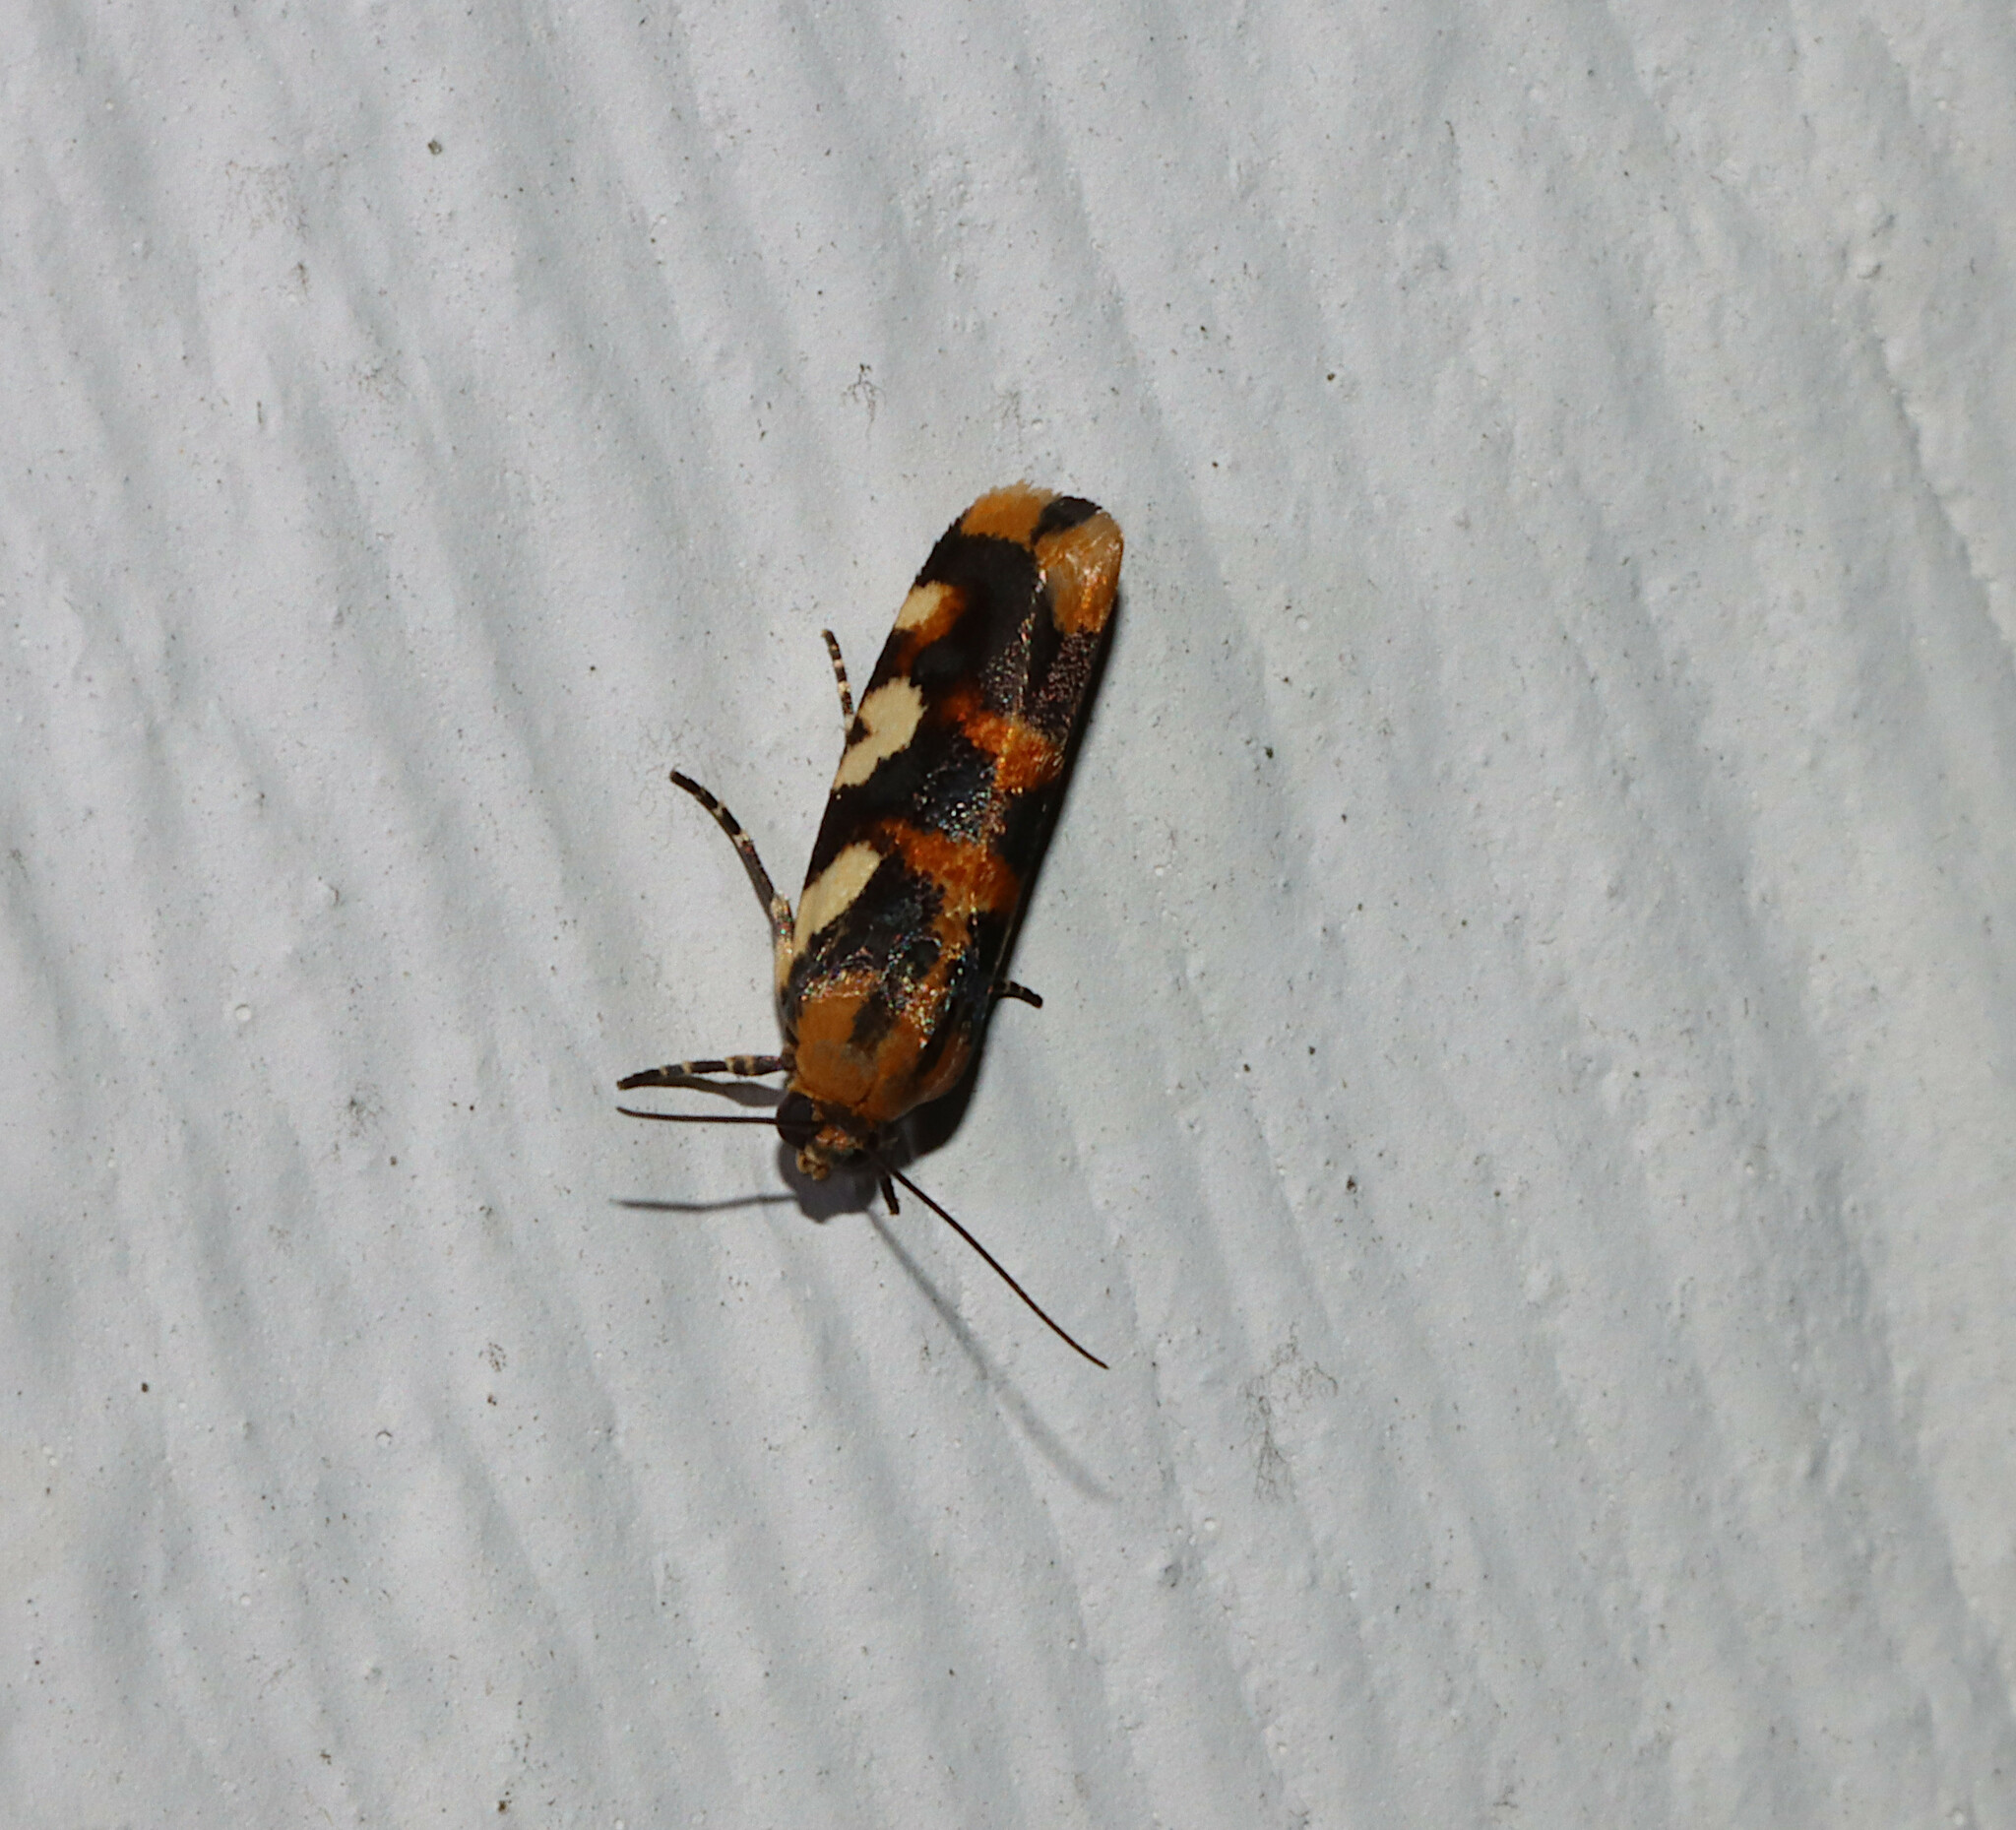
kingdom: Animalia
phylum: Arthropoda
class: Insecta
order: Lepidoptera
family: Noctuidae
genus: Acontia
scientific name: Acontia dama
